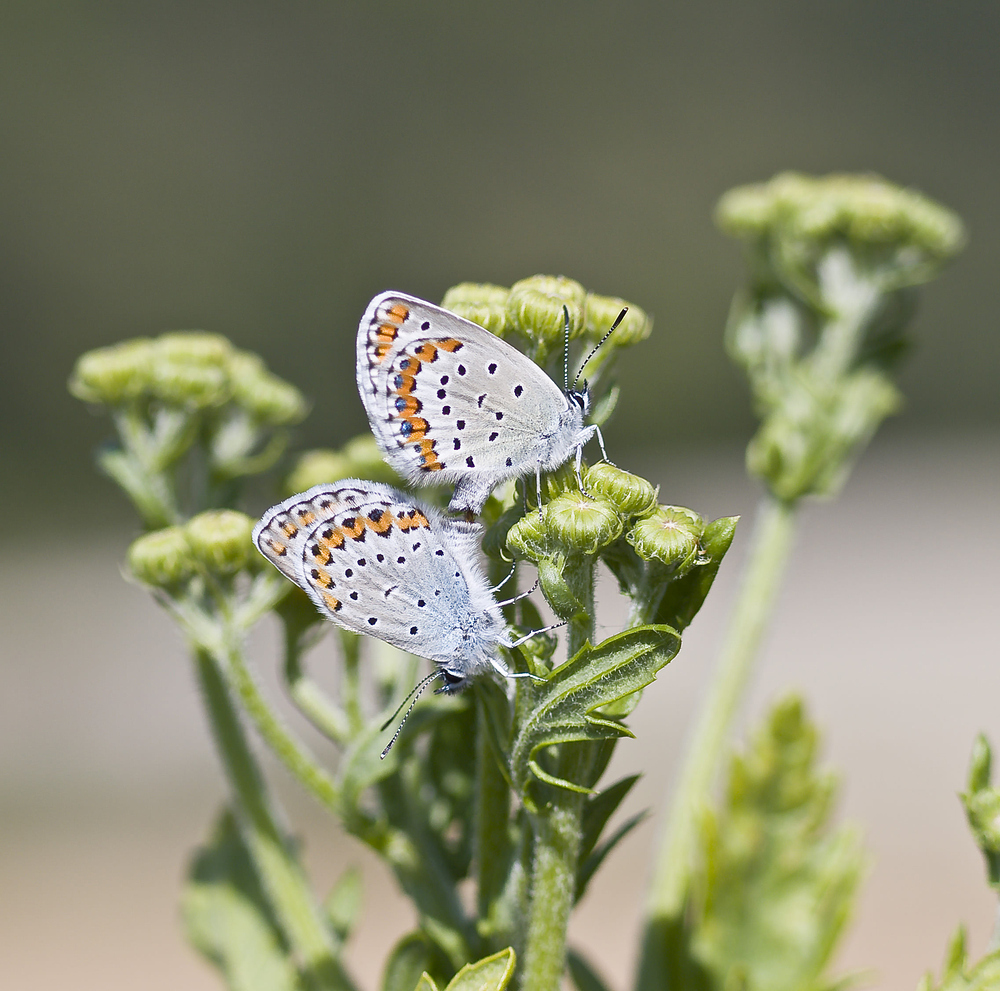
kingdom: Animalia
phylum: Arthropoda
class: Insecta
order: Lepidoptera
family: Lycaenidae
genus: Plebejus
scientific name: Plebejus argyrognomon
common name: Reverdin's blue
